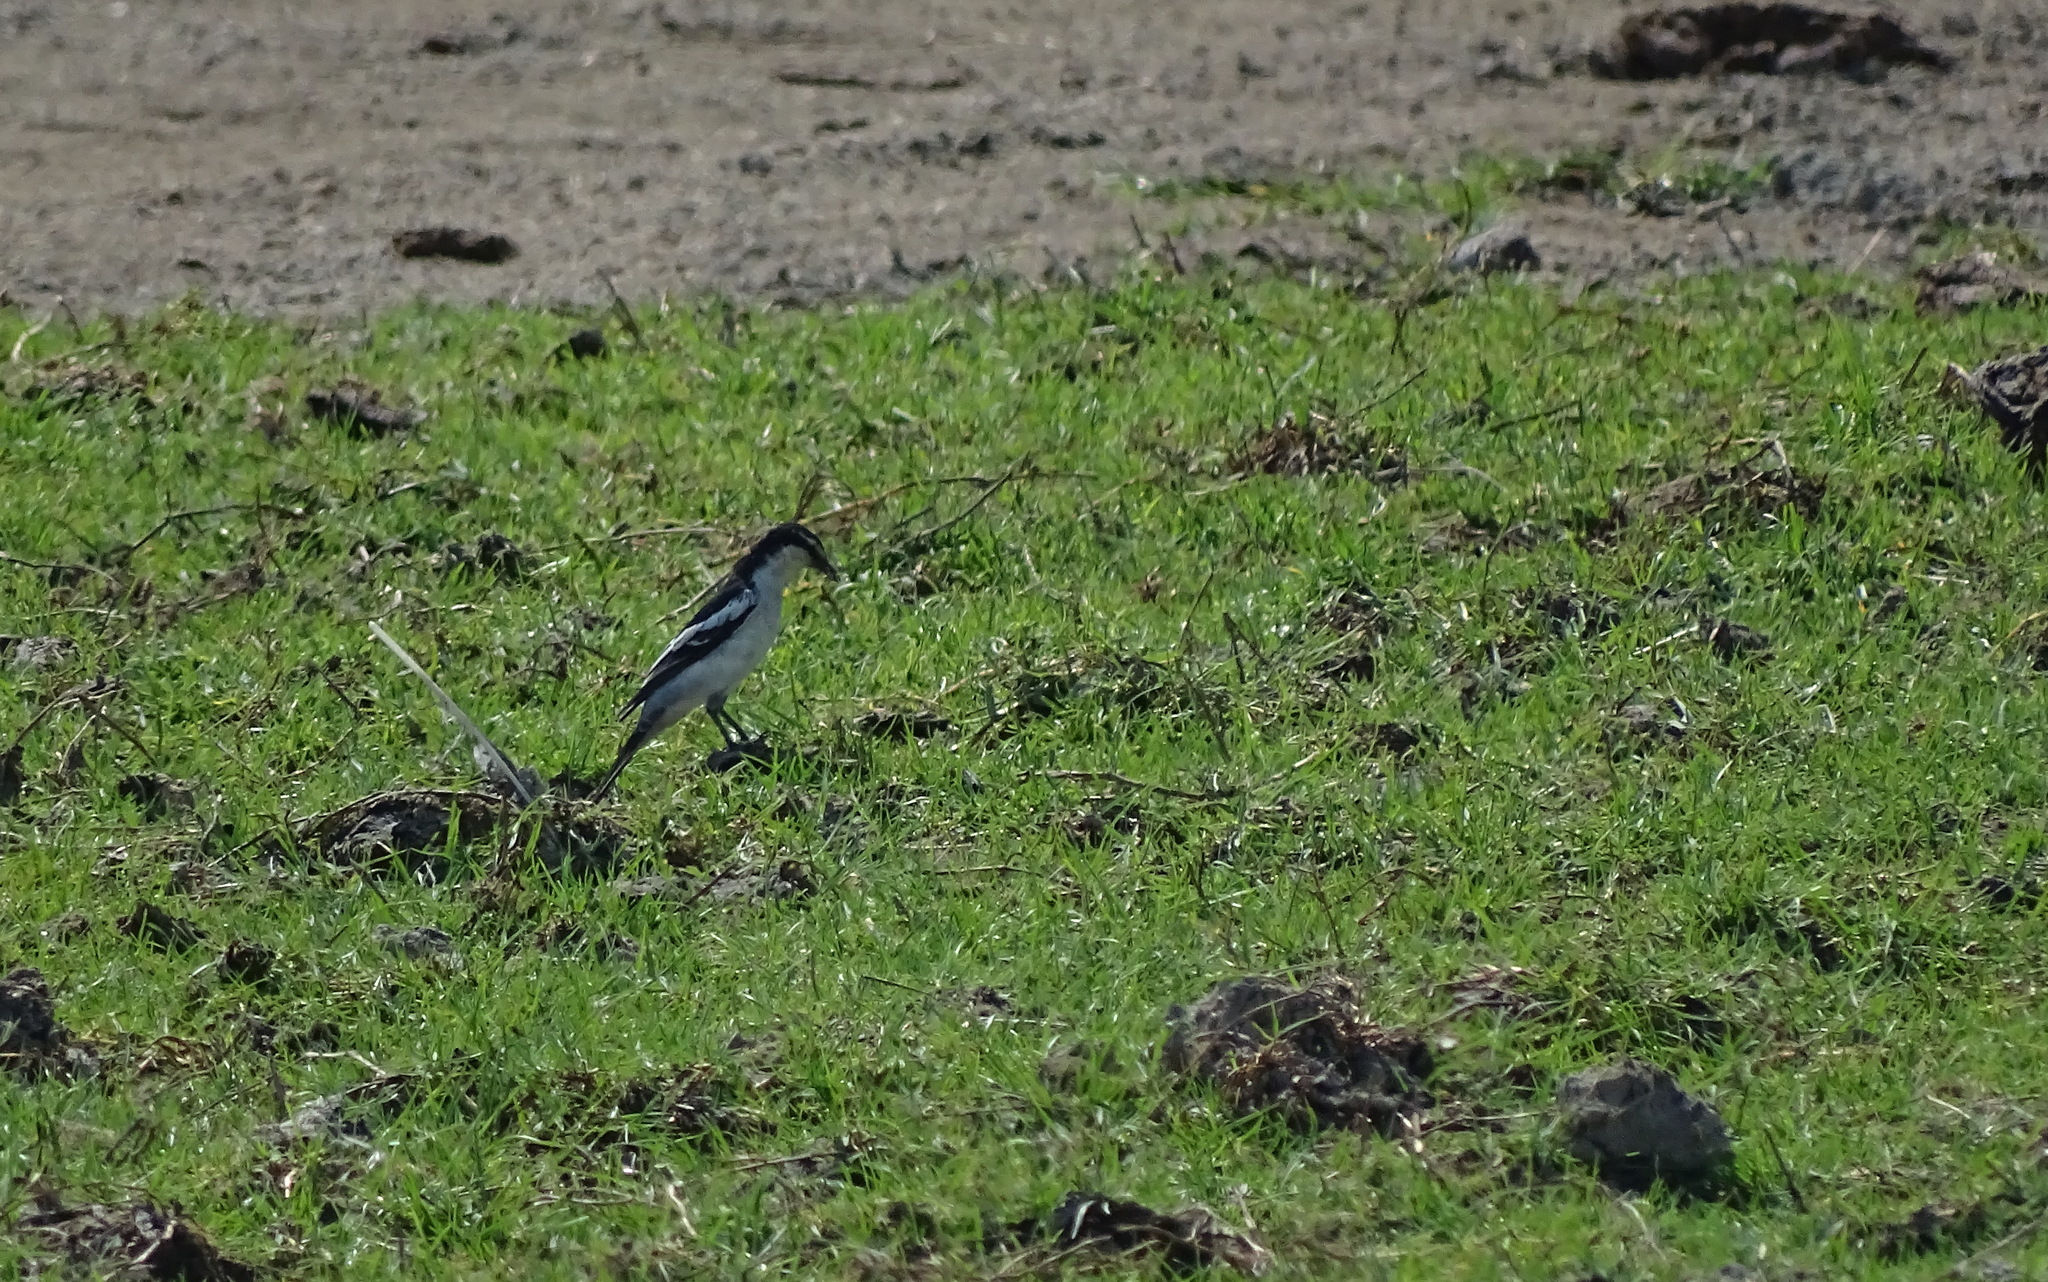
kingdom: Animalia
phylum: Chordata
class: Aves
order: Passeriformes
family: Campephagidae
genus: Lalage
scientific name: Lalage sueurii
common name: White-shouldered triller
